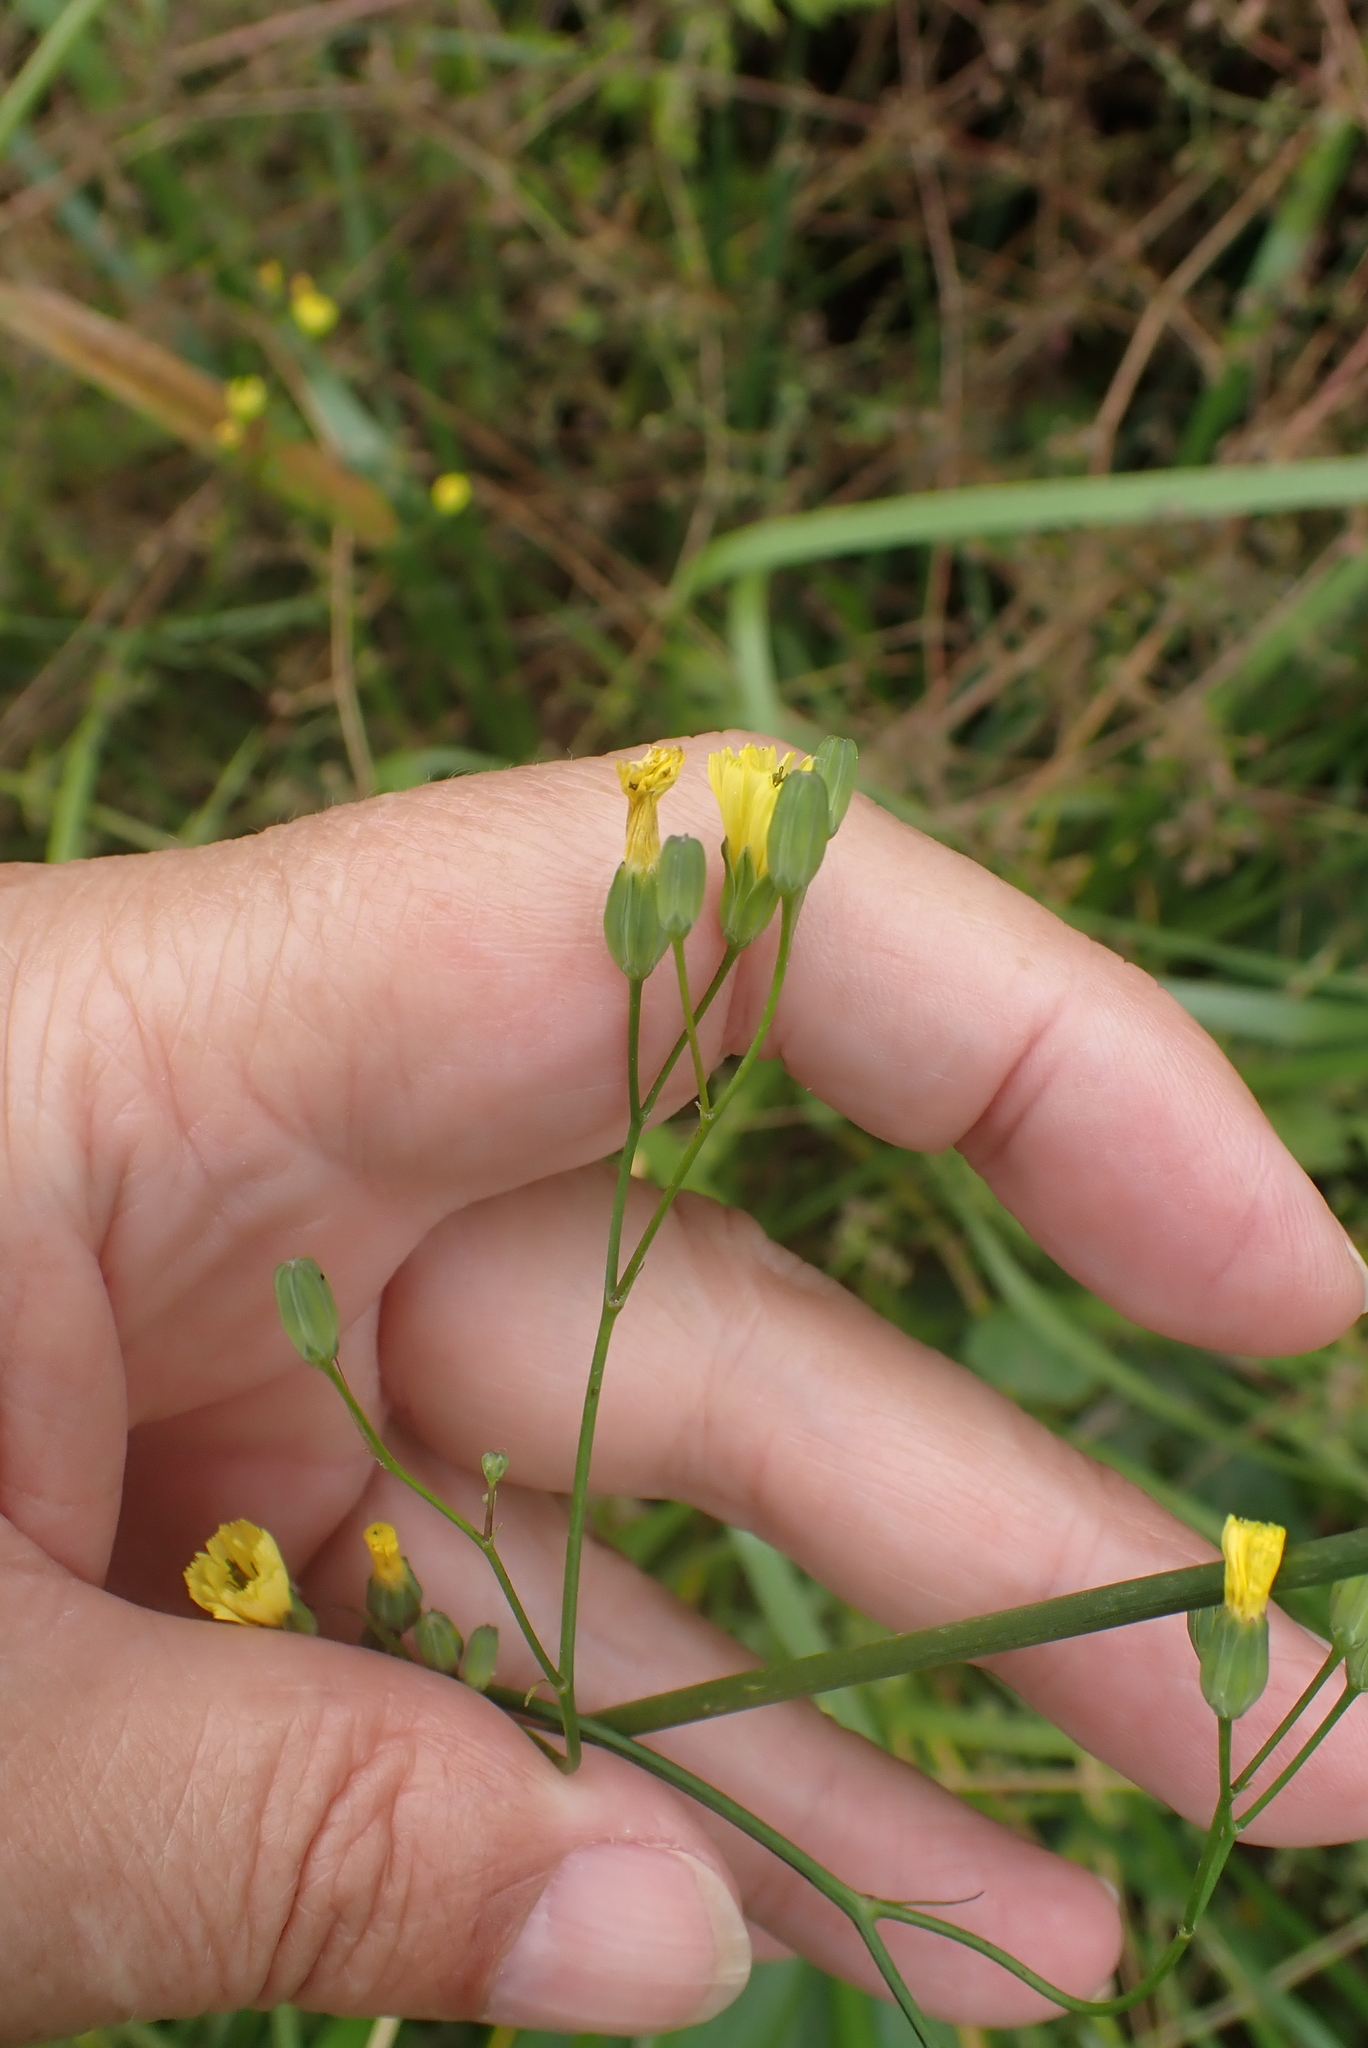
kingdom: Plantae
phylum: Tracheophyta
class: Magnoliopsida
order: Asterales
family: Asteraceae
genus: Lapsana
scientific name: Lapsana communis
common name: Nipplewort
